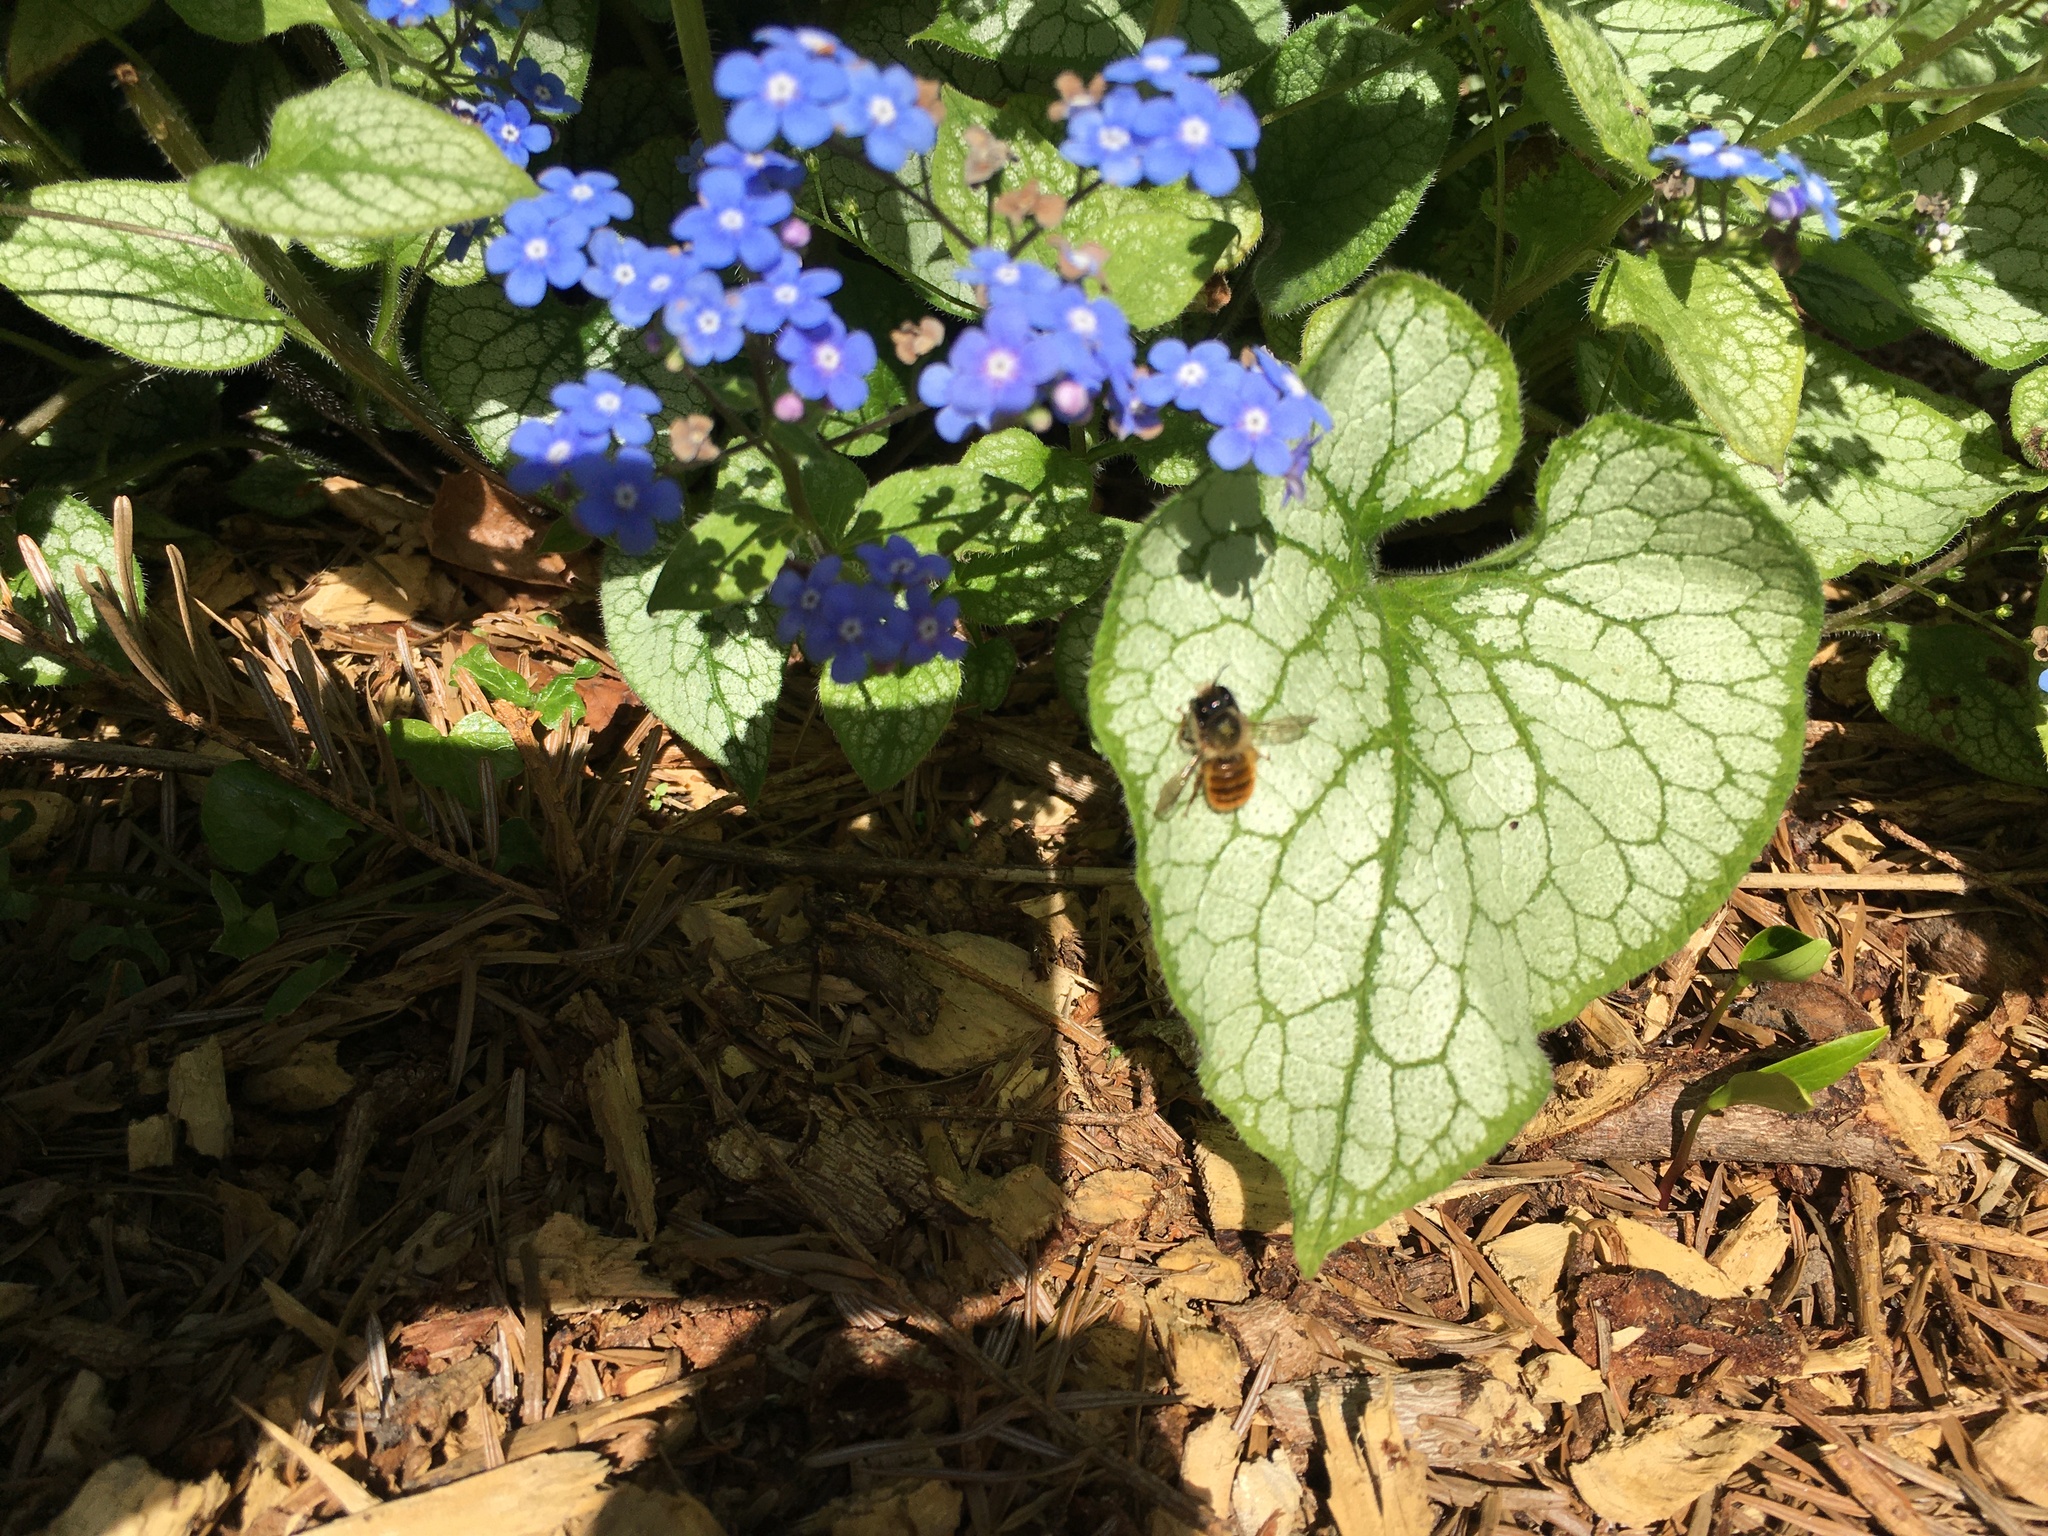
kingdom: Animalia
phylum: Arthropoda
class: Insecta
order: Hymenoptera
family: Megachilidae
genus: Osmia
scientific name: Osmia bicornis
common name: Red mason bee
